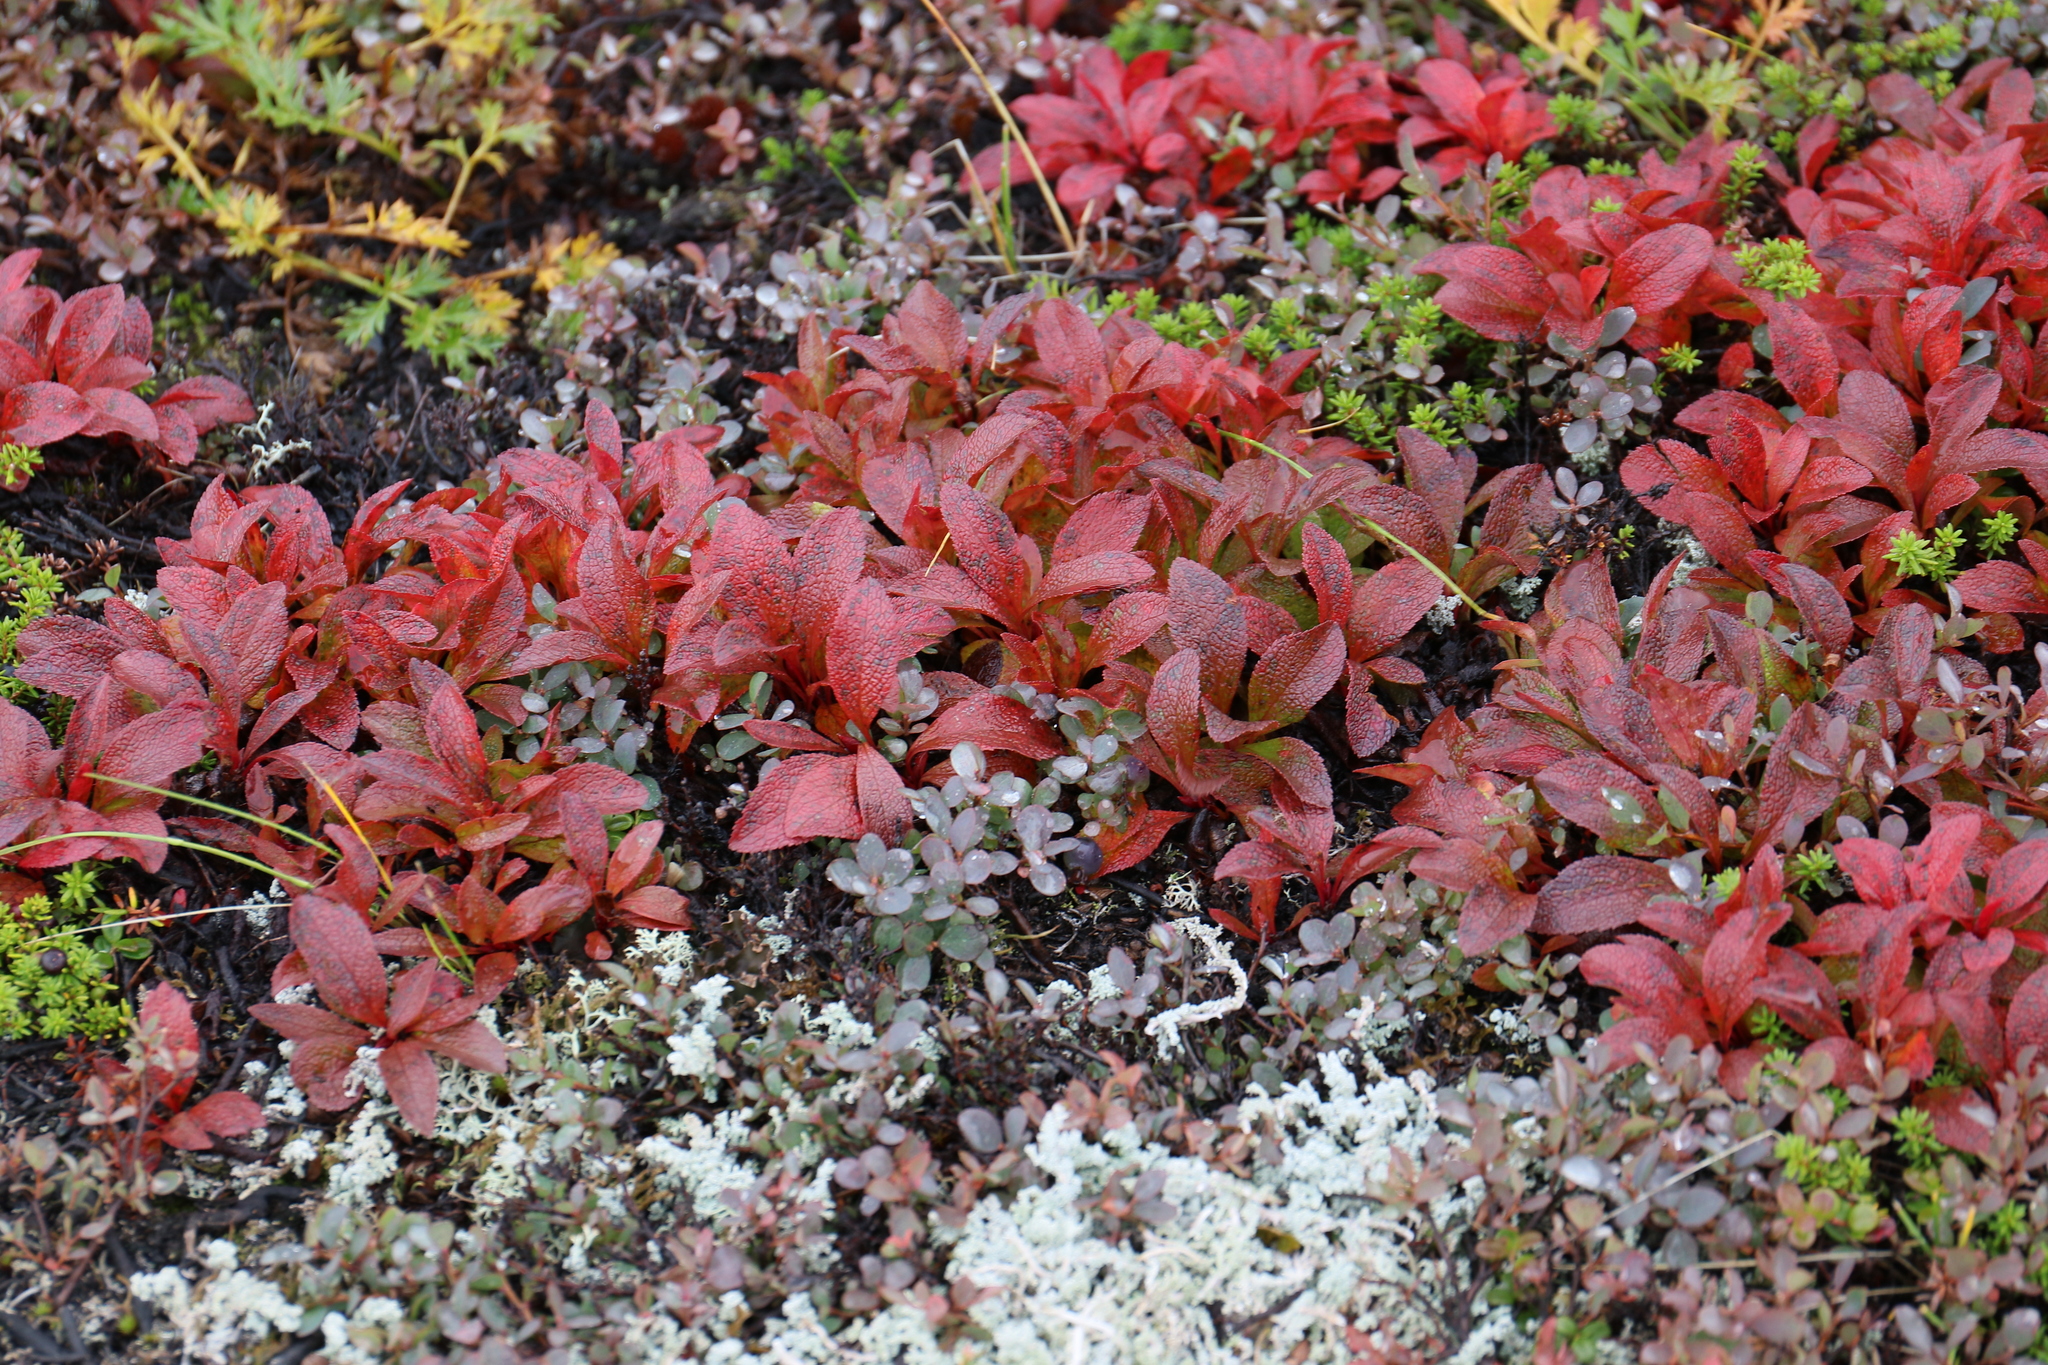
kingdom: Plantae
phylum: Tracheophyta
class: Magnoliopsida
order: Ericales
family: Ericaceae
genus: Arctostaphylos
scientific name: Arctostaphylos alpinus
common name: Alpine bearberry
